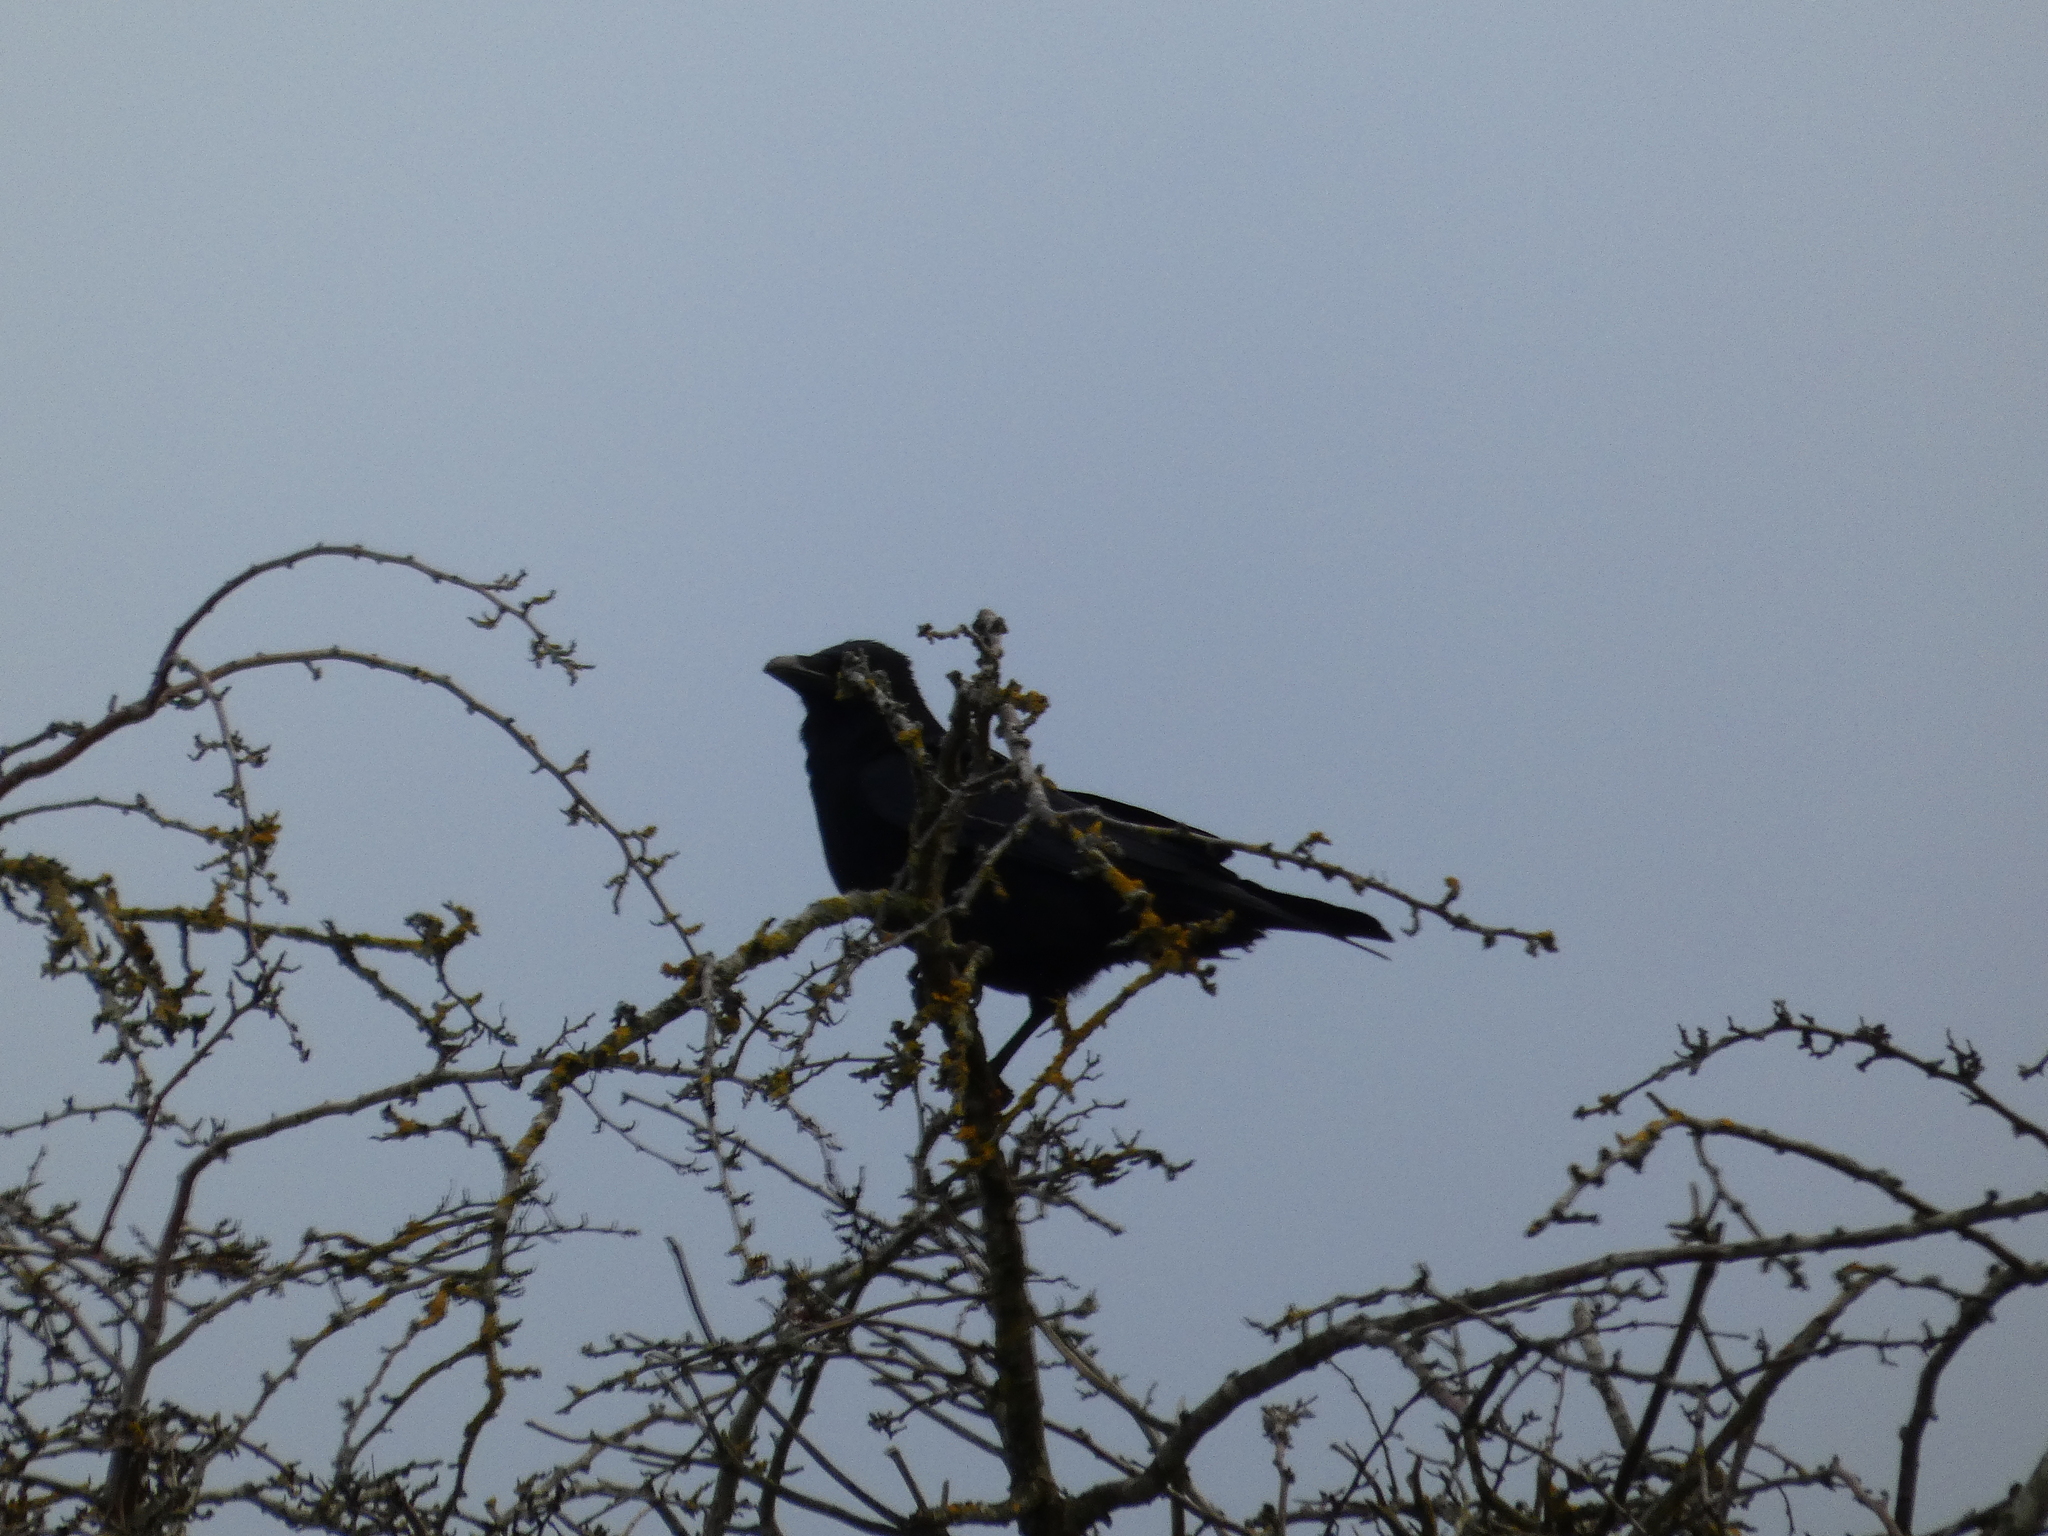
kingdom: Animalia
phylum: Chordata
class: Aves
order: Passeriformes
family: Corvidae
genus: Corvus
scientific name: Corvus corone
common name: Carrion crow
